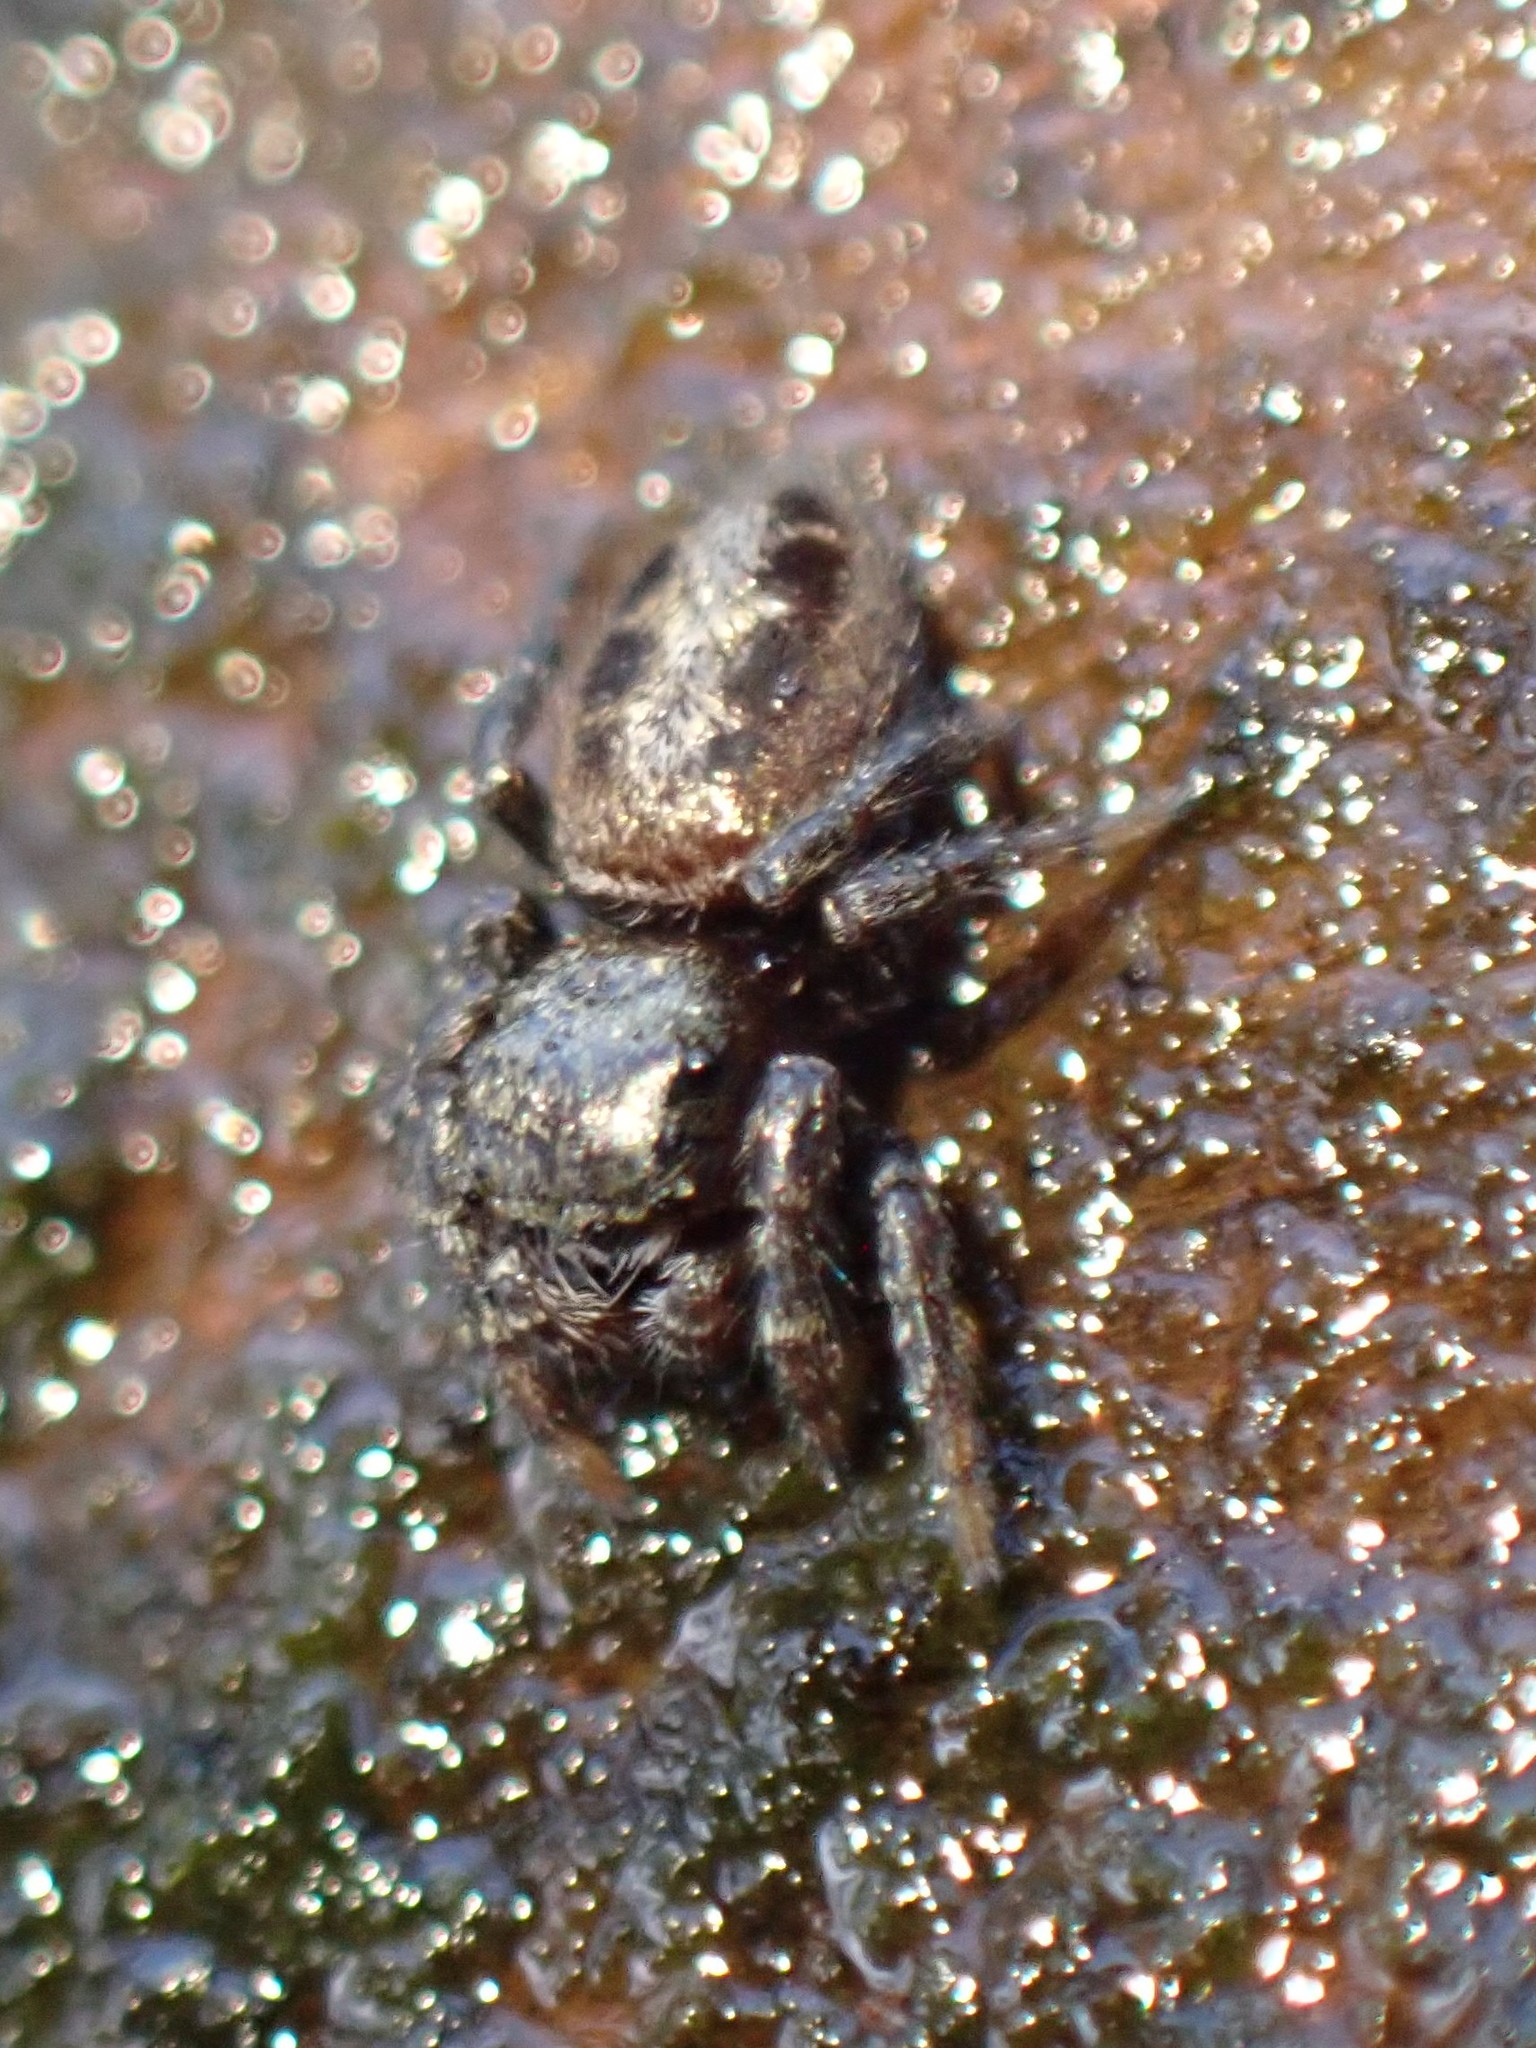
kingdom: Animalia
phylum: Arthropoda
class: Arachnida
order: Araneae
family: Salticidae
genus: Pelegrina
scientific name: Pelegrina aeneola
